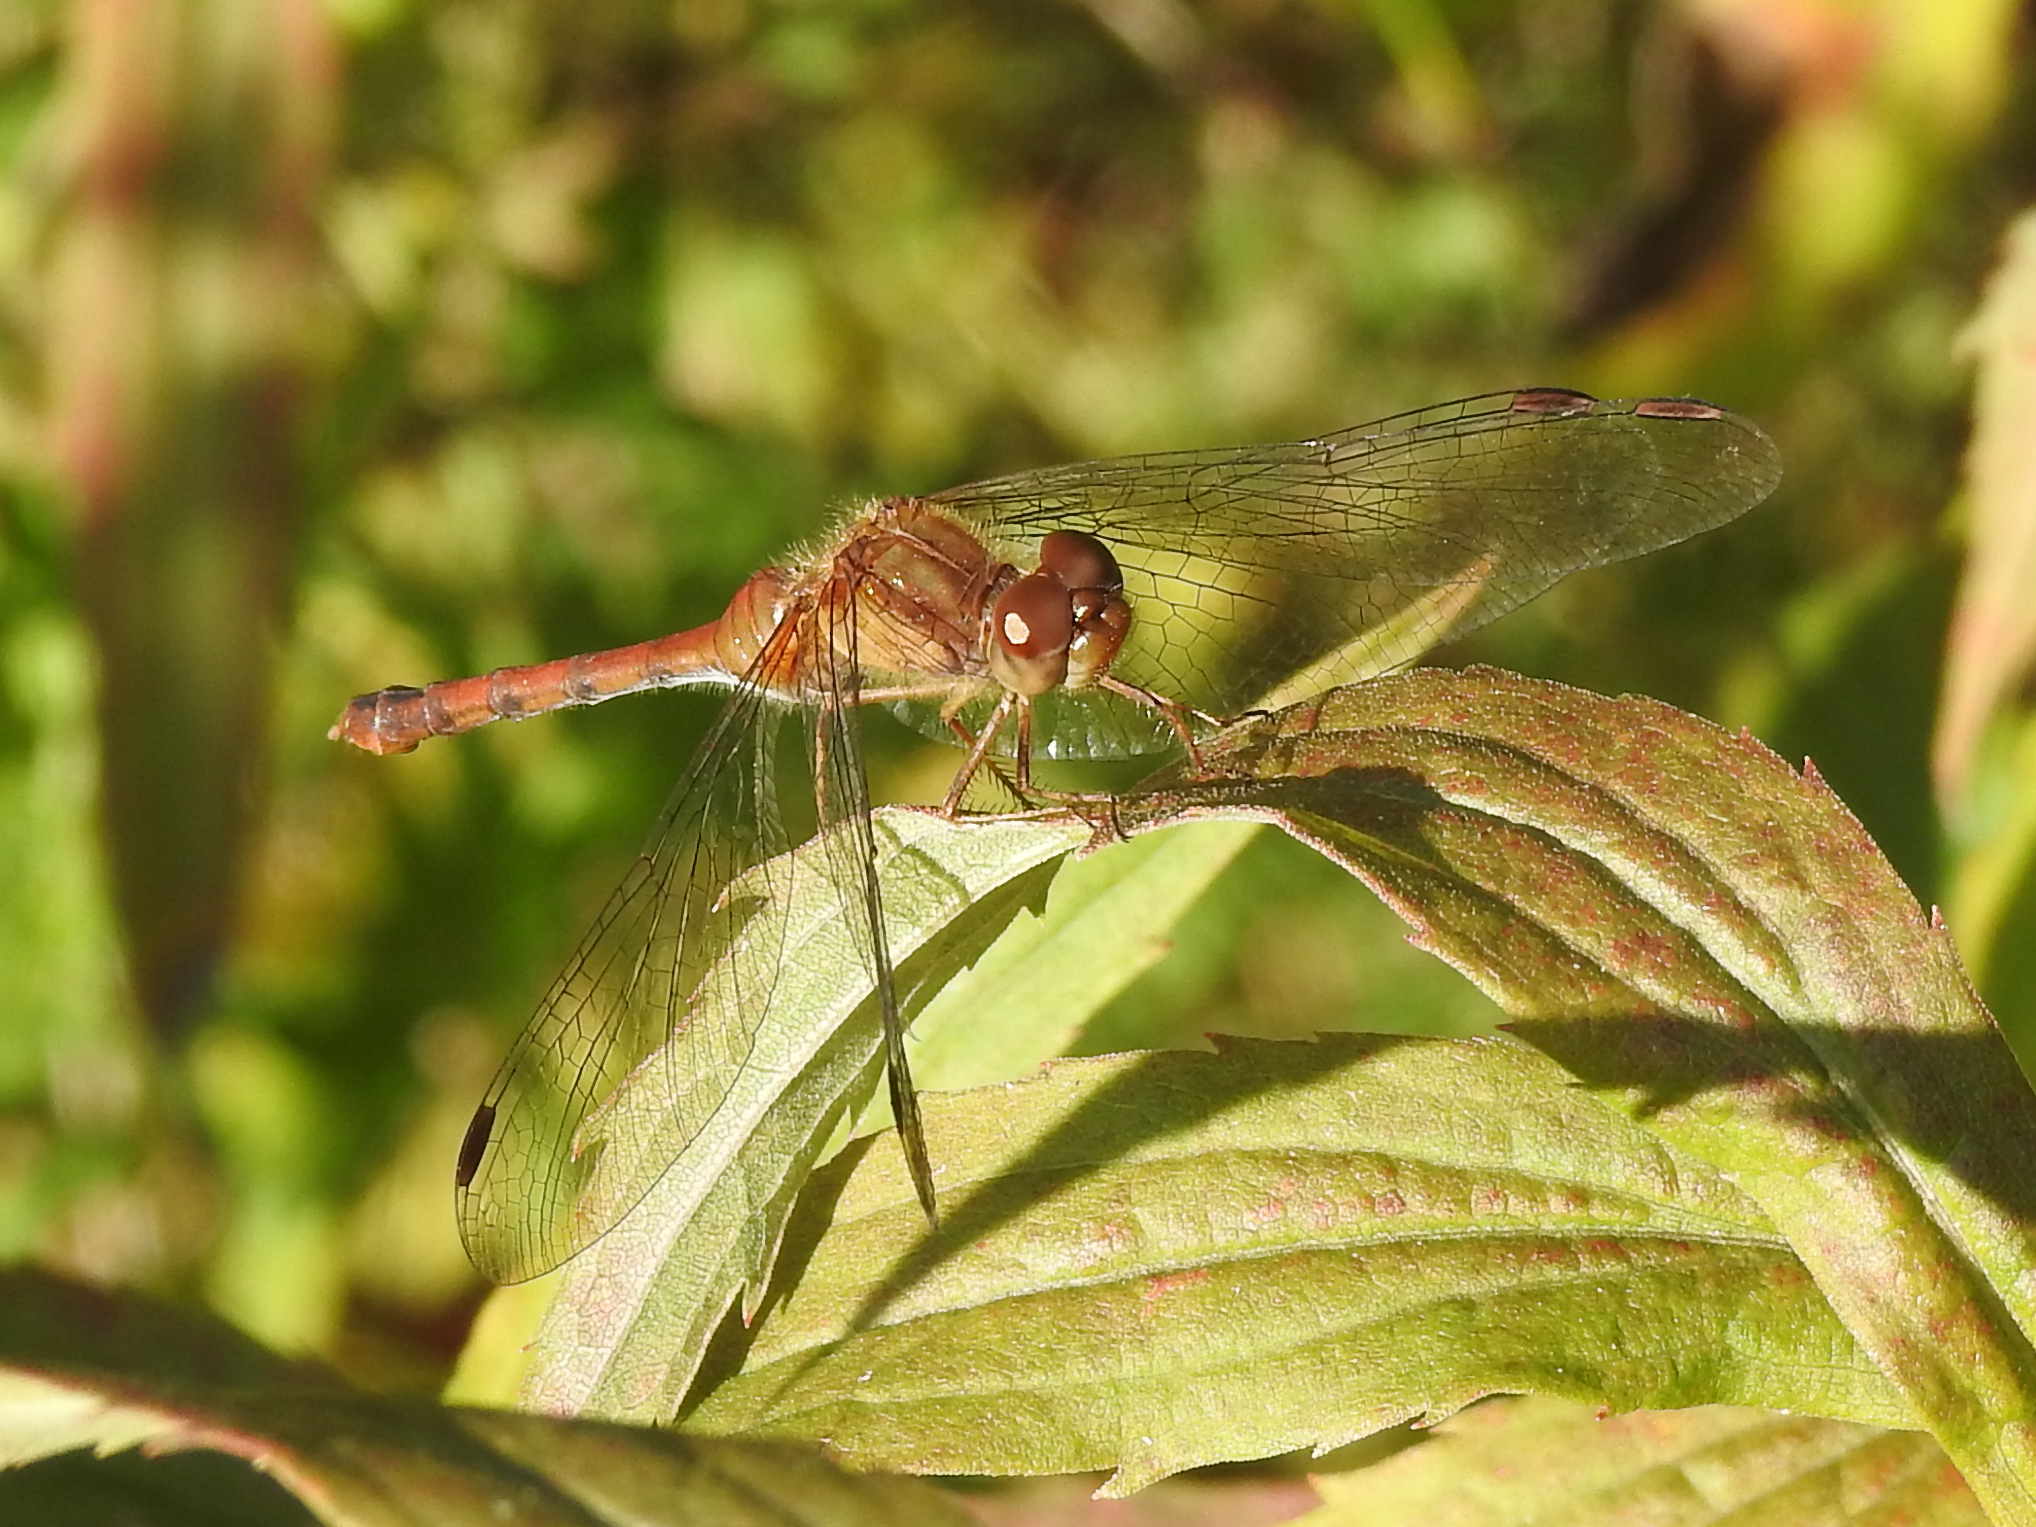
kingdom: Animalia
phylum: Arthropoda
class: Insecta
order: Odonata
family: Libellulidae
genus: Sympetrum
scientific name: Sympetrum vicinum
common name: Autumn meadowhawk
